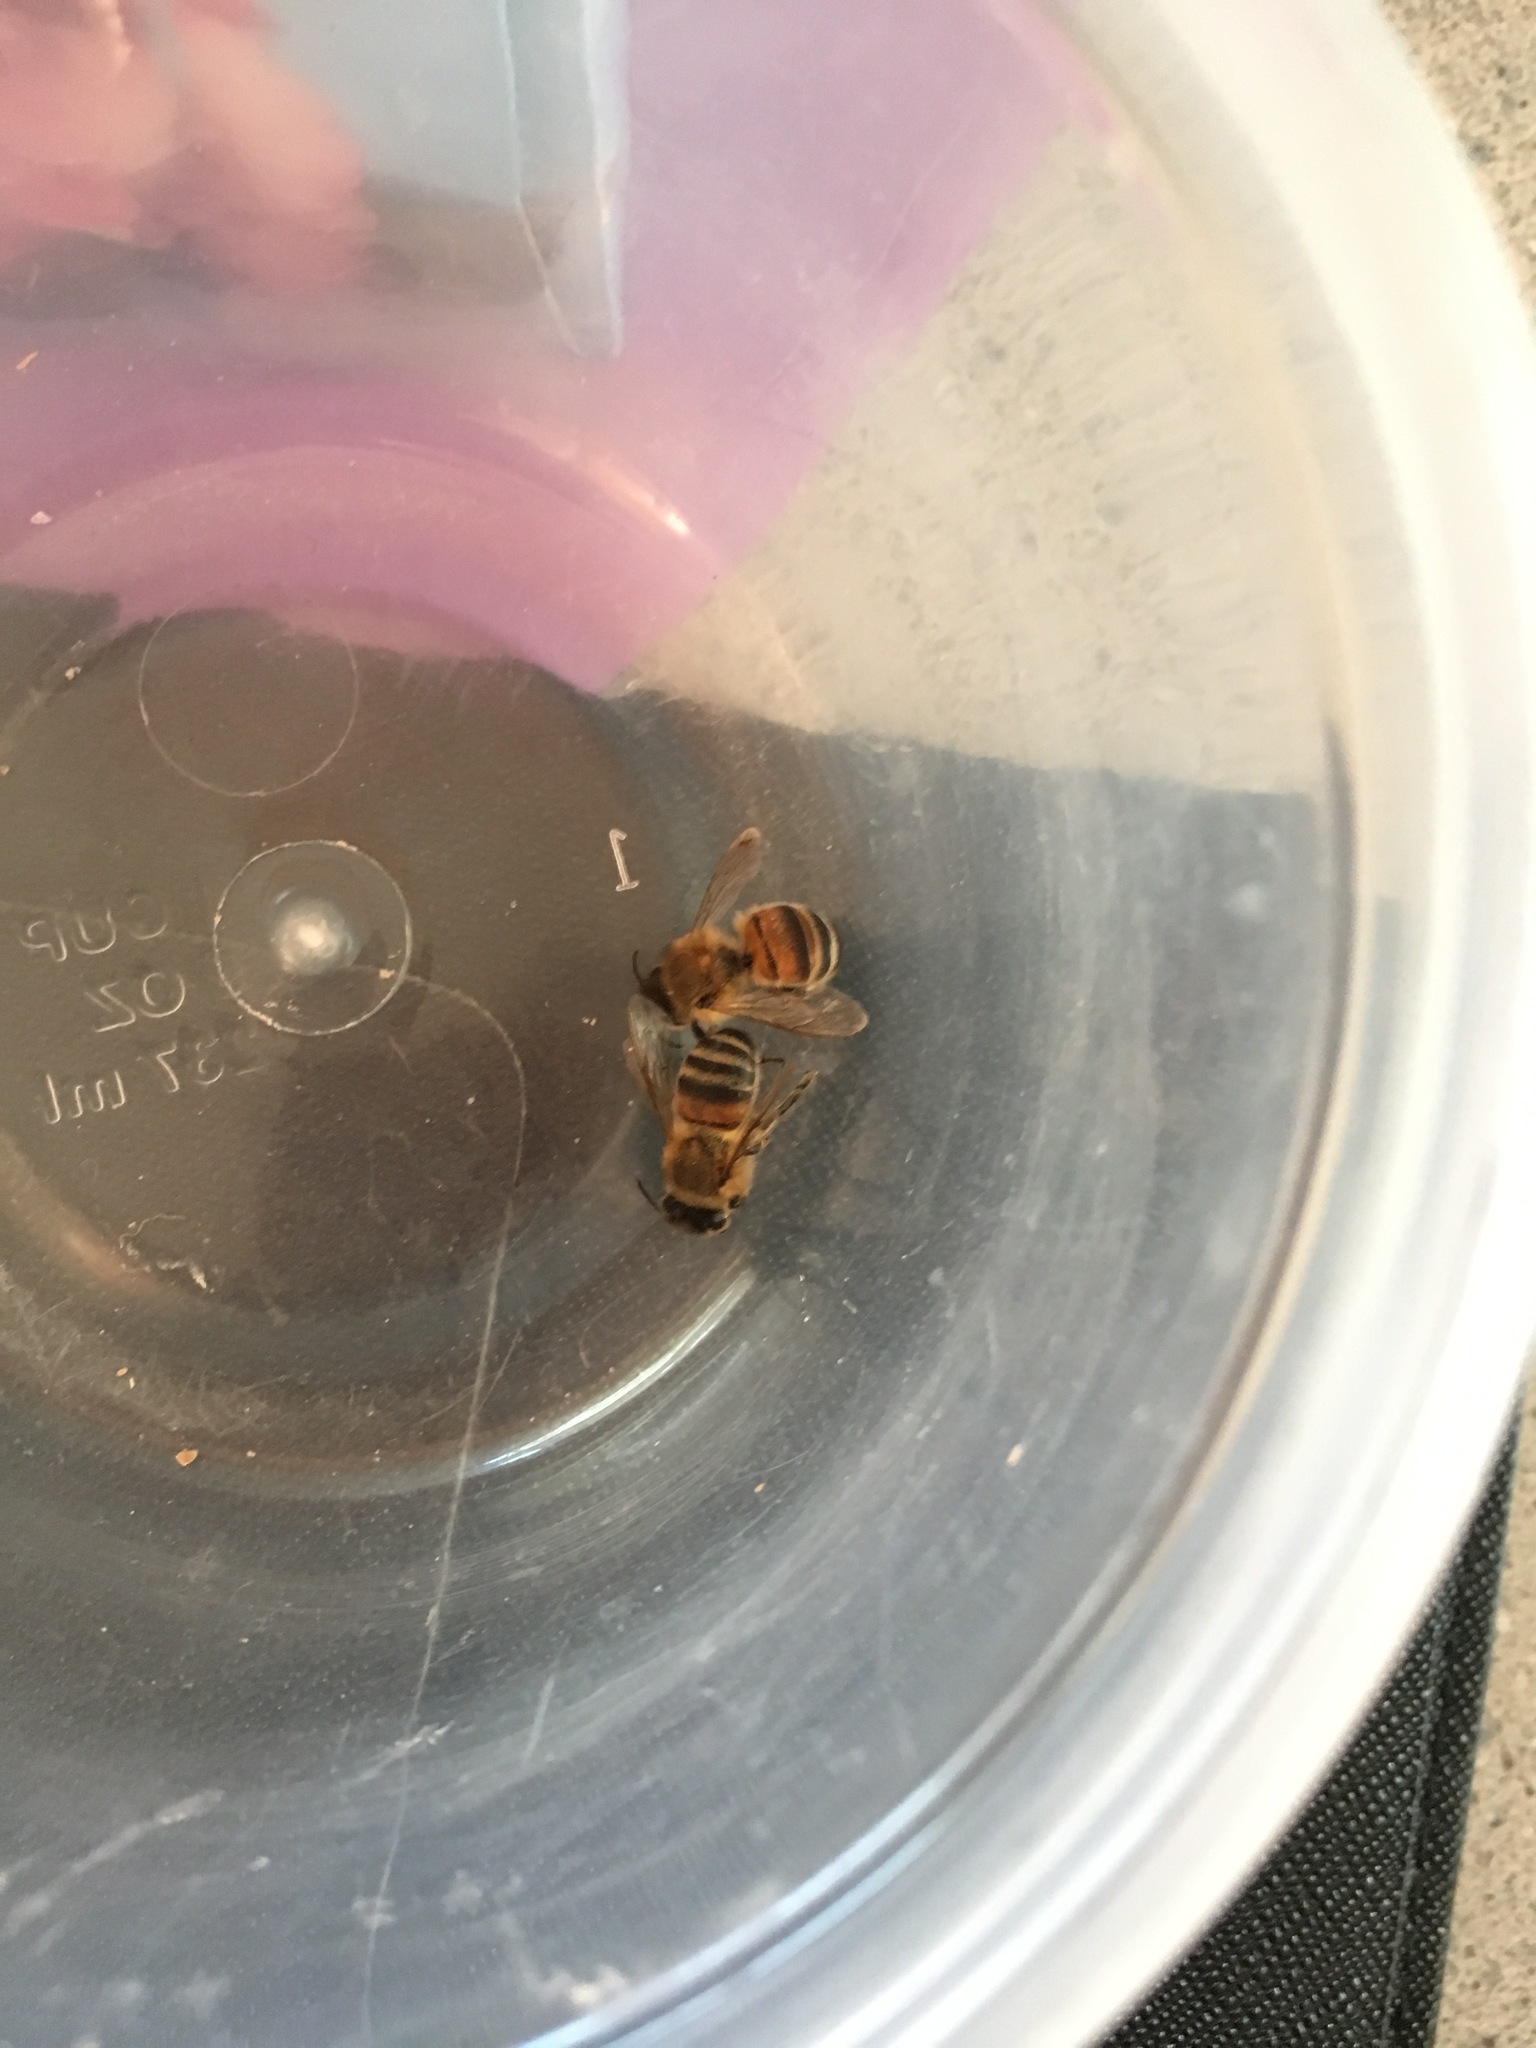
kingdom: Animalia
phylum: Arthropoda
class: Insecta
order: Hymenoptera
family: Apidae
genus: Apis
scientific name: Apis mellifera
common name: Honey bee
